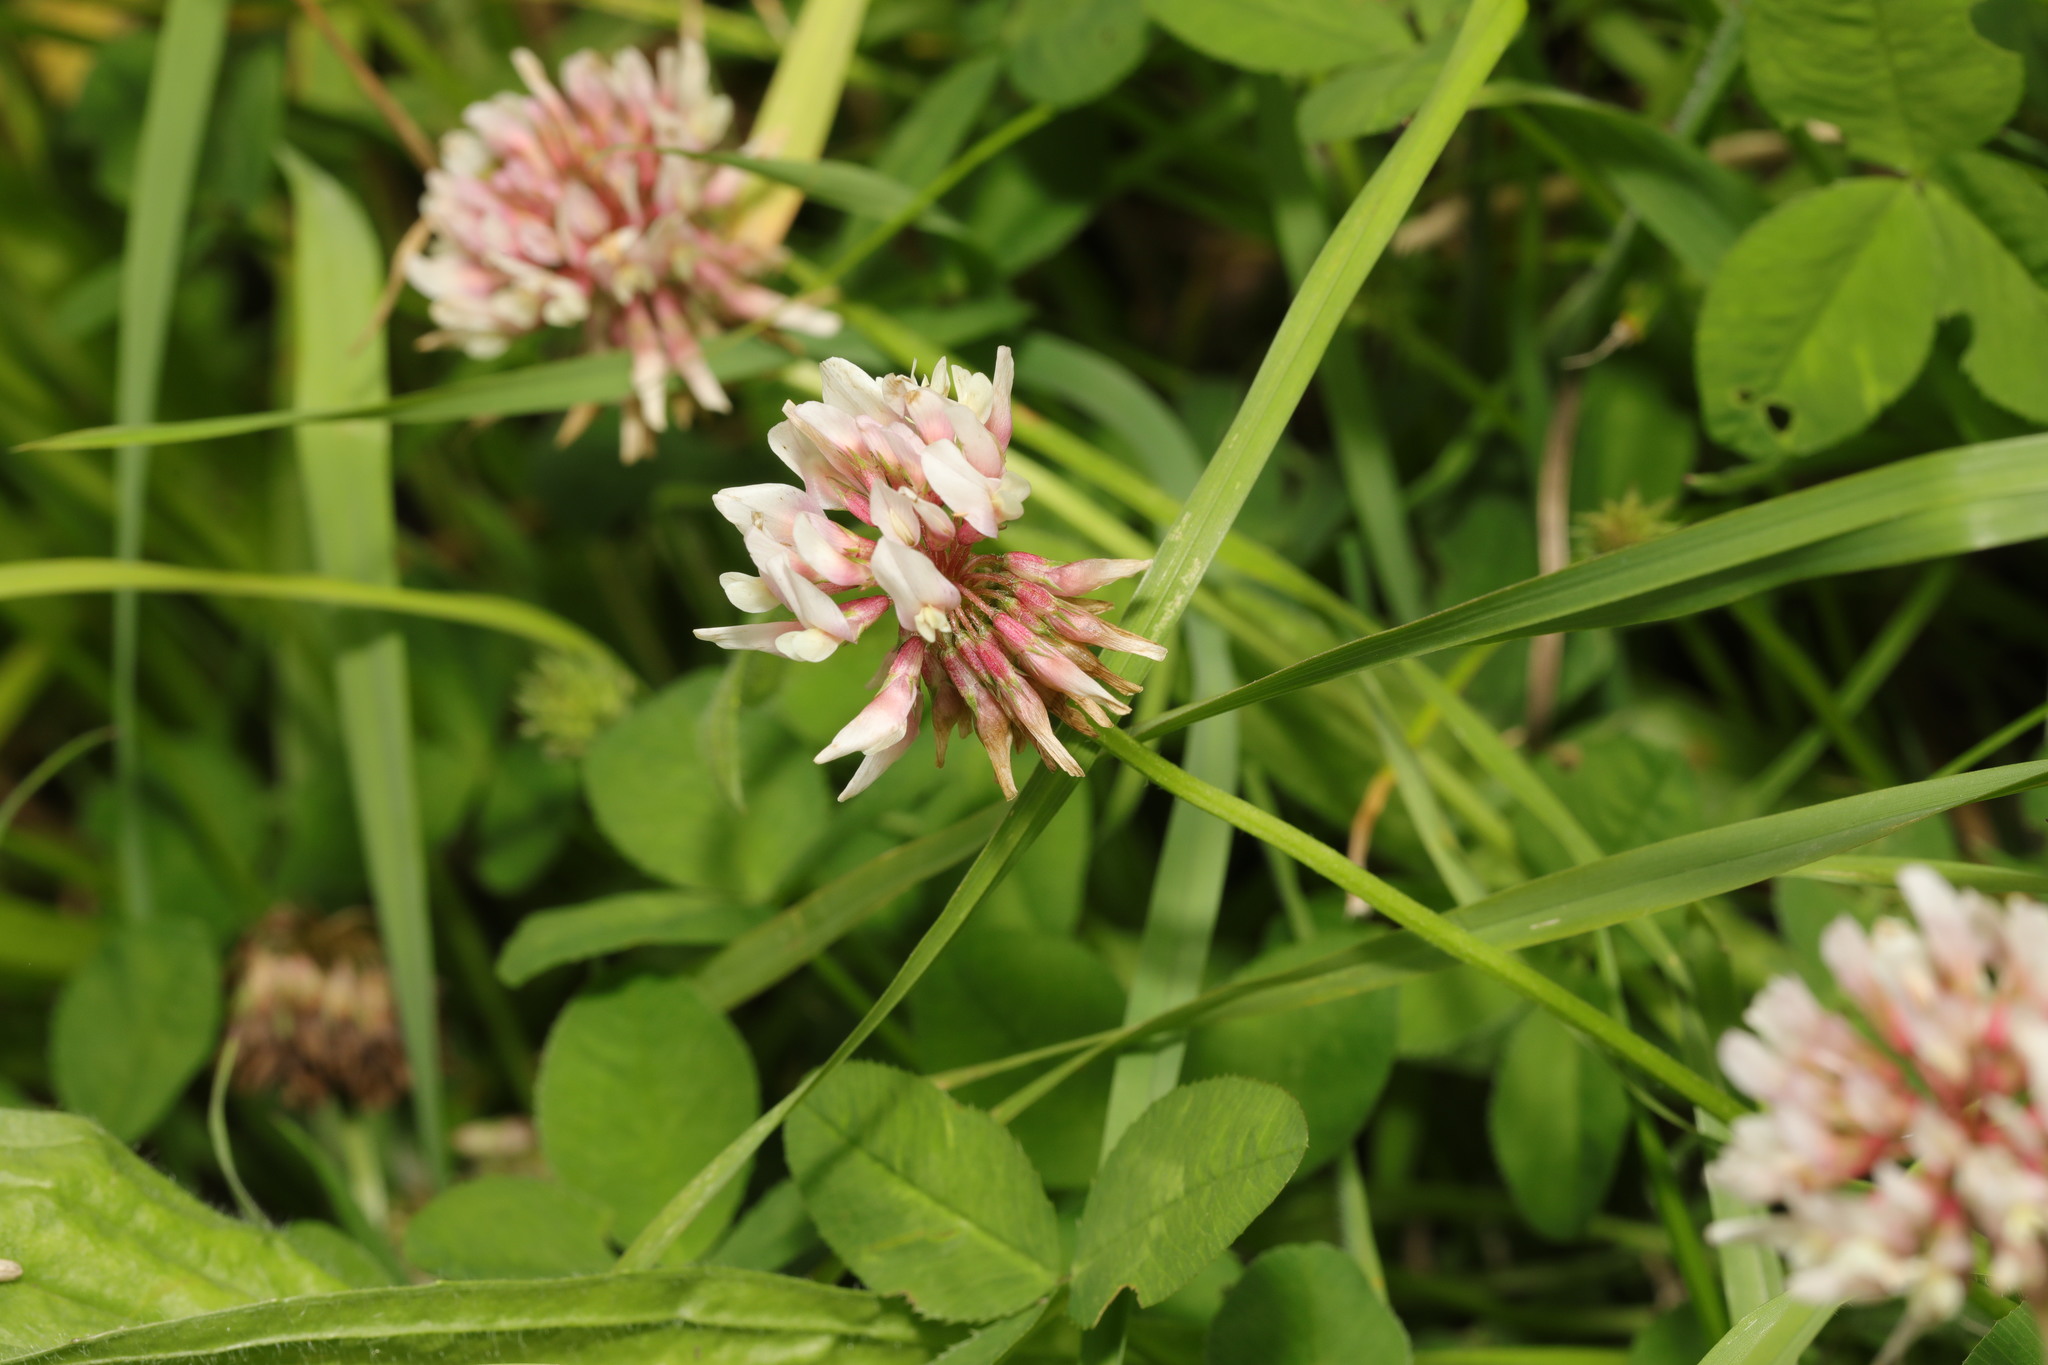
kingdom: Plantae
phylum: Tracheophyta
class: Magnoliopsida
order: Fabales
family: Fabaceae
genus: Trifolium
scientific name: Trifolium hybridum
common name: Alsike clover
